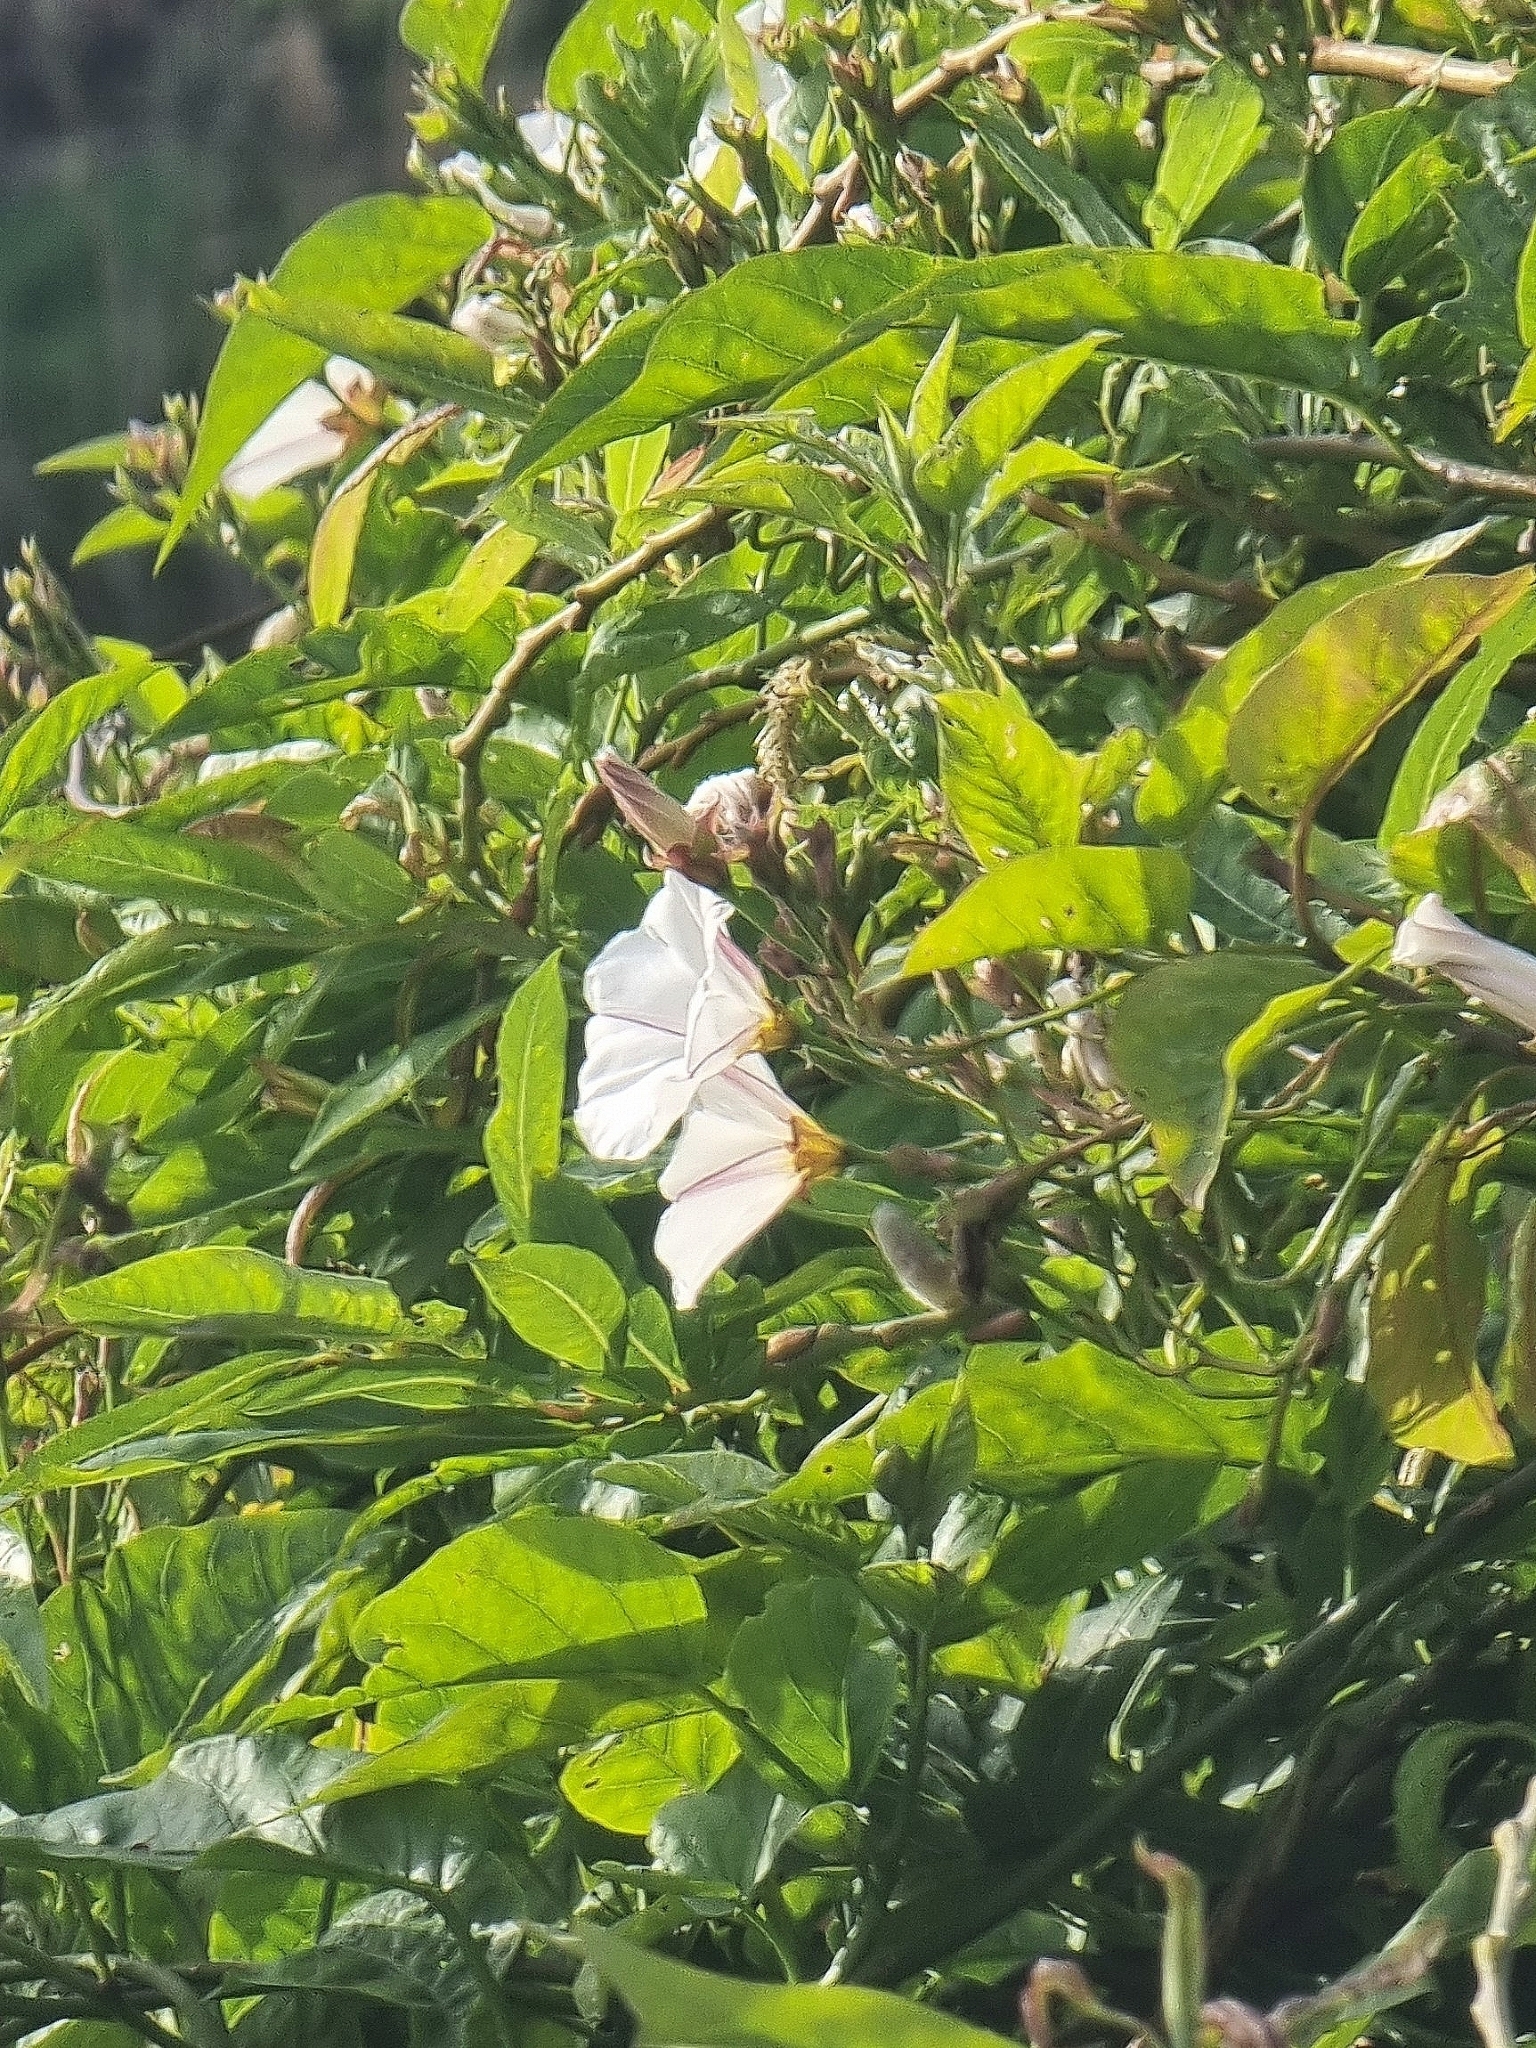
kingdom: Plantae
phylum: Tracheophyta
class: Magnoliopsida
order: Solanales
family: Convolvulaceae
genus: Convolvulus
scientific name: Convolvulus massonii
